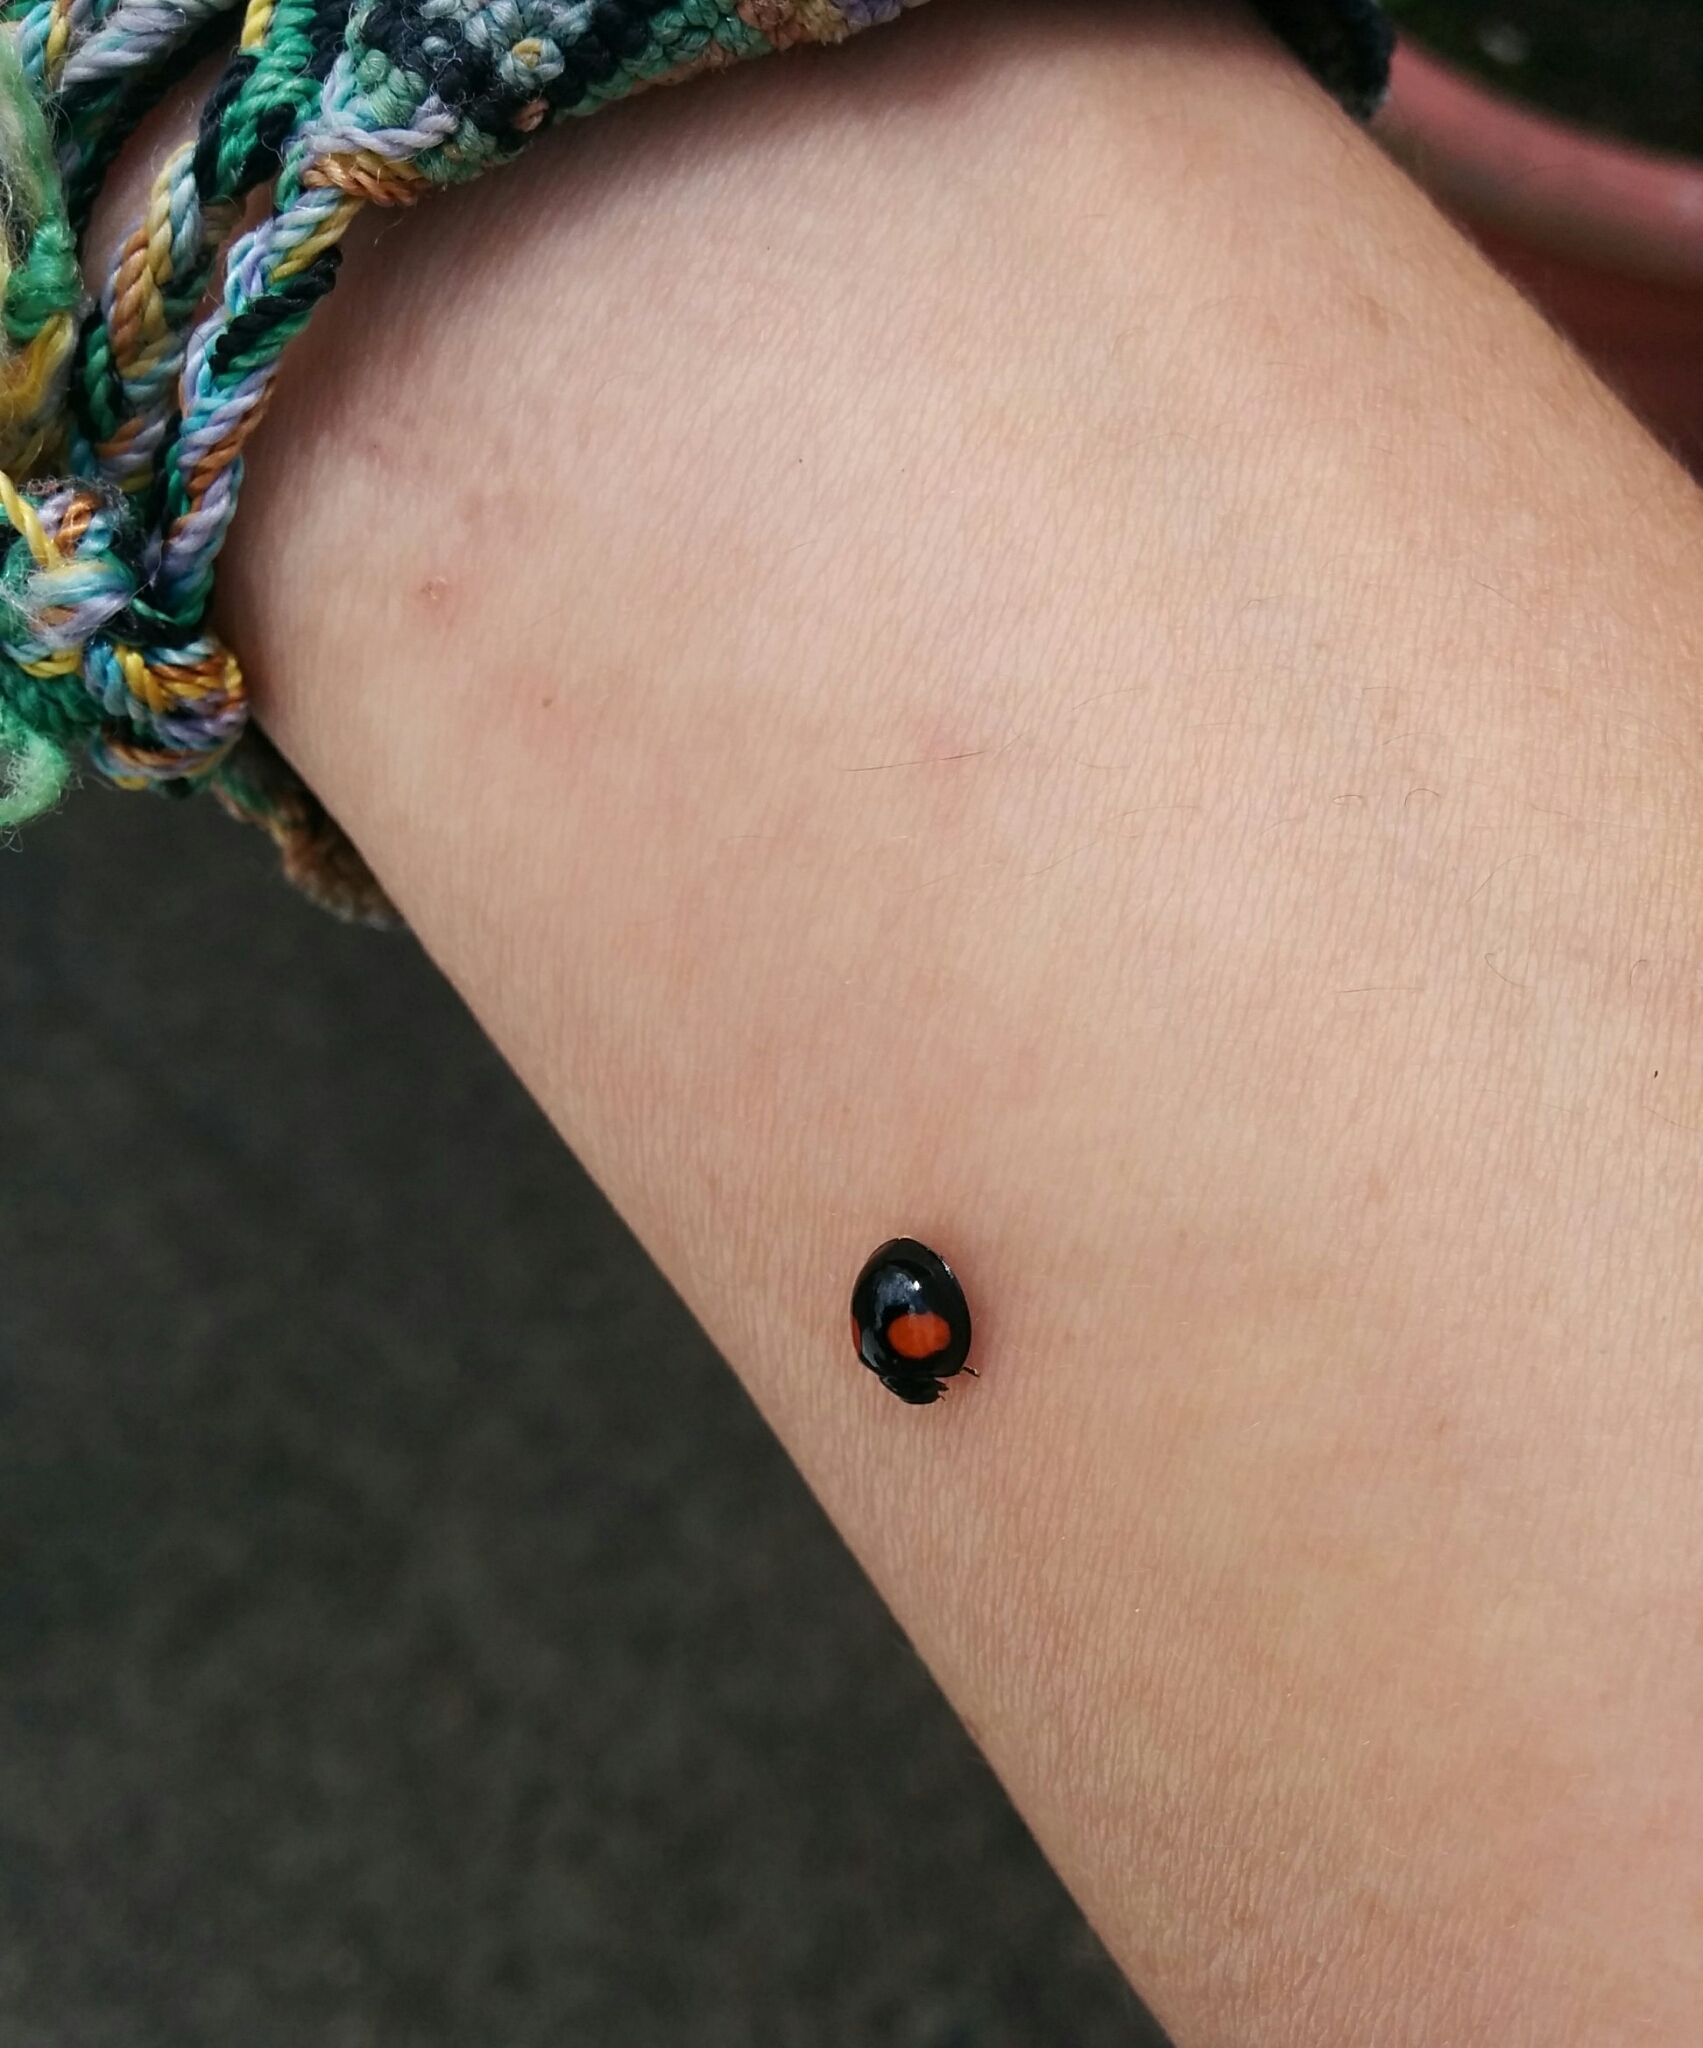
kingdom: Animalia
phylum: Arthropoda
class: Insecta
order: Coleoptera
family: Coccinellidae
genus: Chilocorus
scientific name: Chilocorus cacti
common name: Cactus lady beetle
